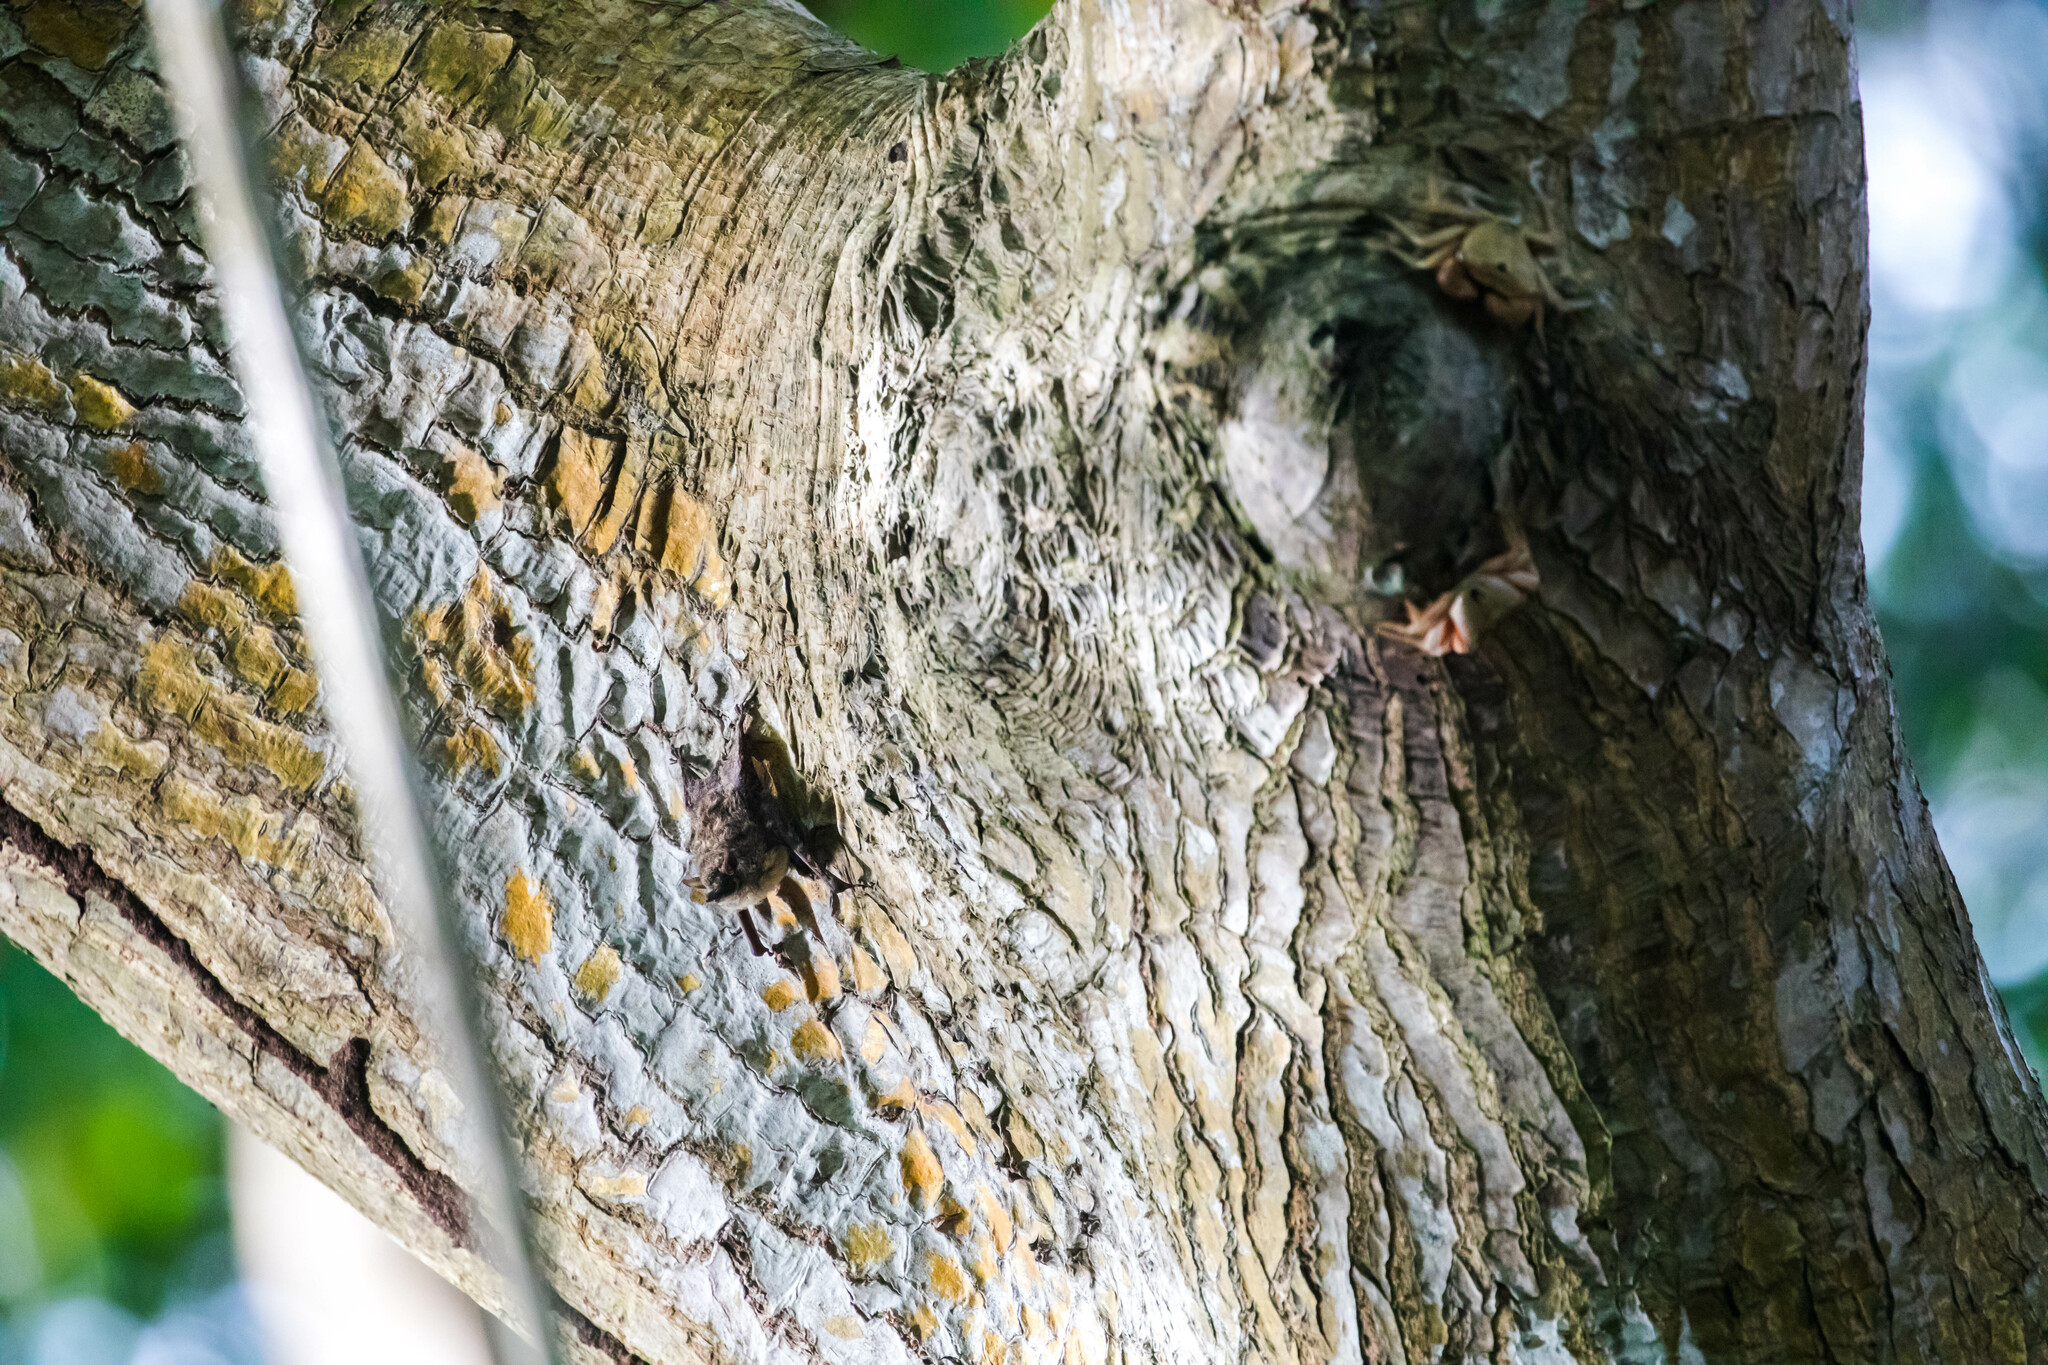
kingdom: Animalia
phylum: Chordata
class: Mammalia
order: Chiroptera
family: Emballonuridae
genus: Rhynchonycteris
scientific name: Rhynchonycteris naso
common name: Proboscis bat
